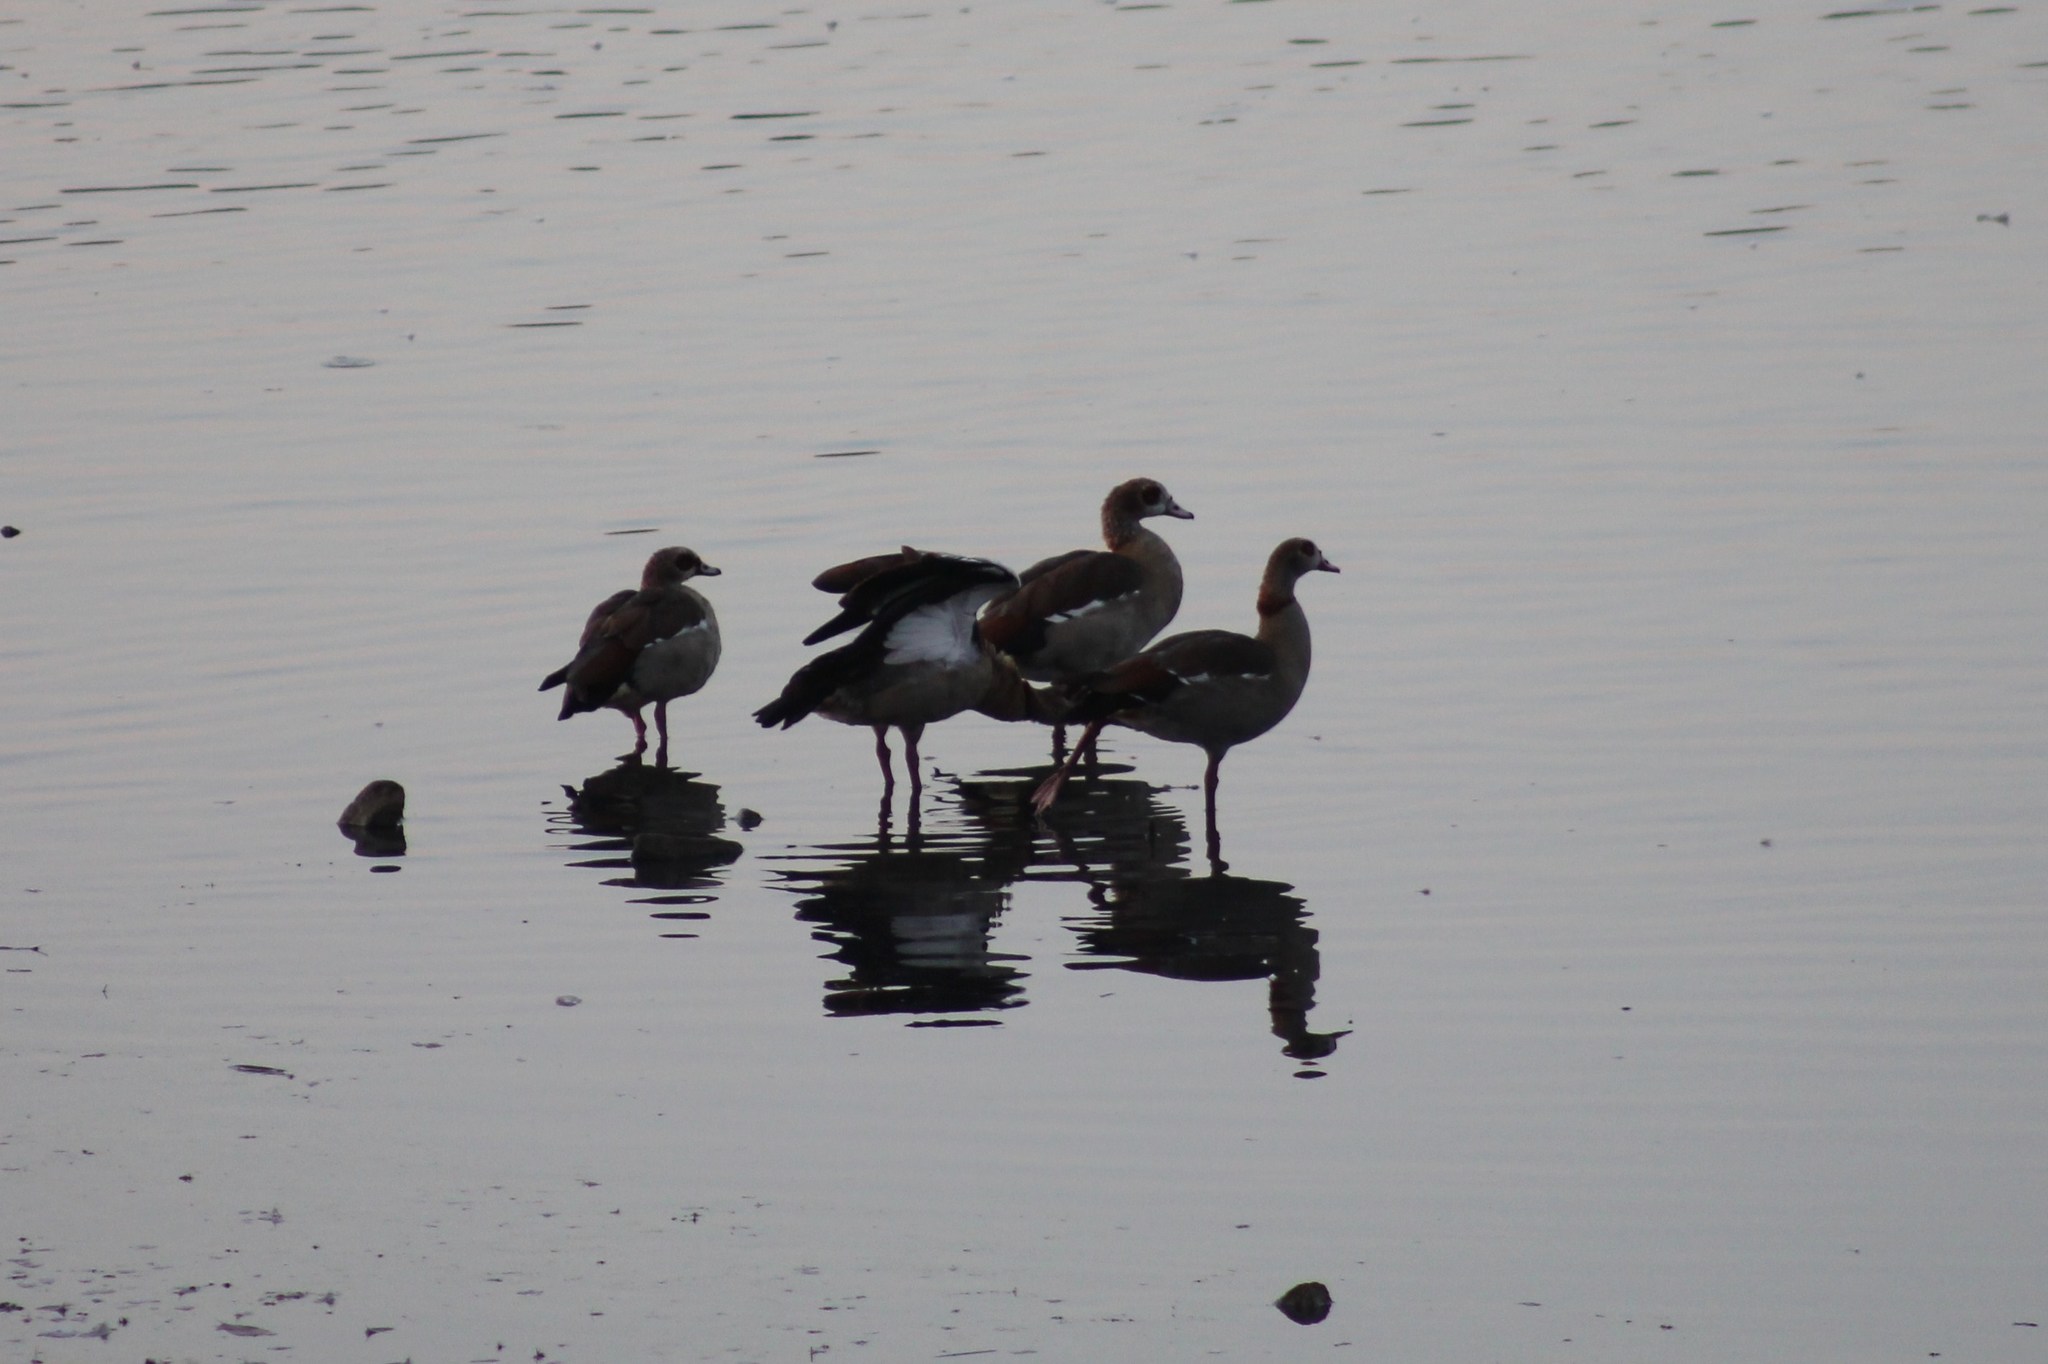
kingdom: Animalia
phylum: Chordata
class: Aves
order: Anseriformes
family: Anatidae
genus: Alopochen
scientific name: Alopochen aegyptiaca
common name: Egyptian goose
